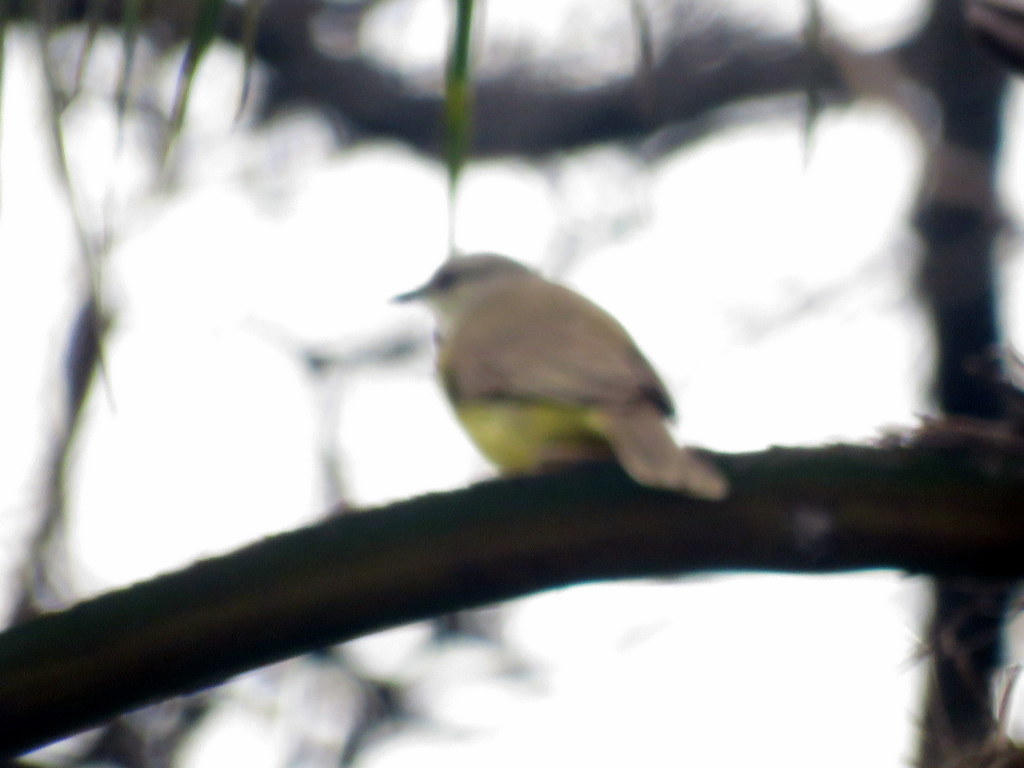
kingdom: Animalia
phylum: Chordata
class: Aves
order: Passeriformes
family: Tyrannidae
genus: Machetornis
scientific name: Machetornis rixosa
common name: Cattle tyrant
